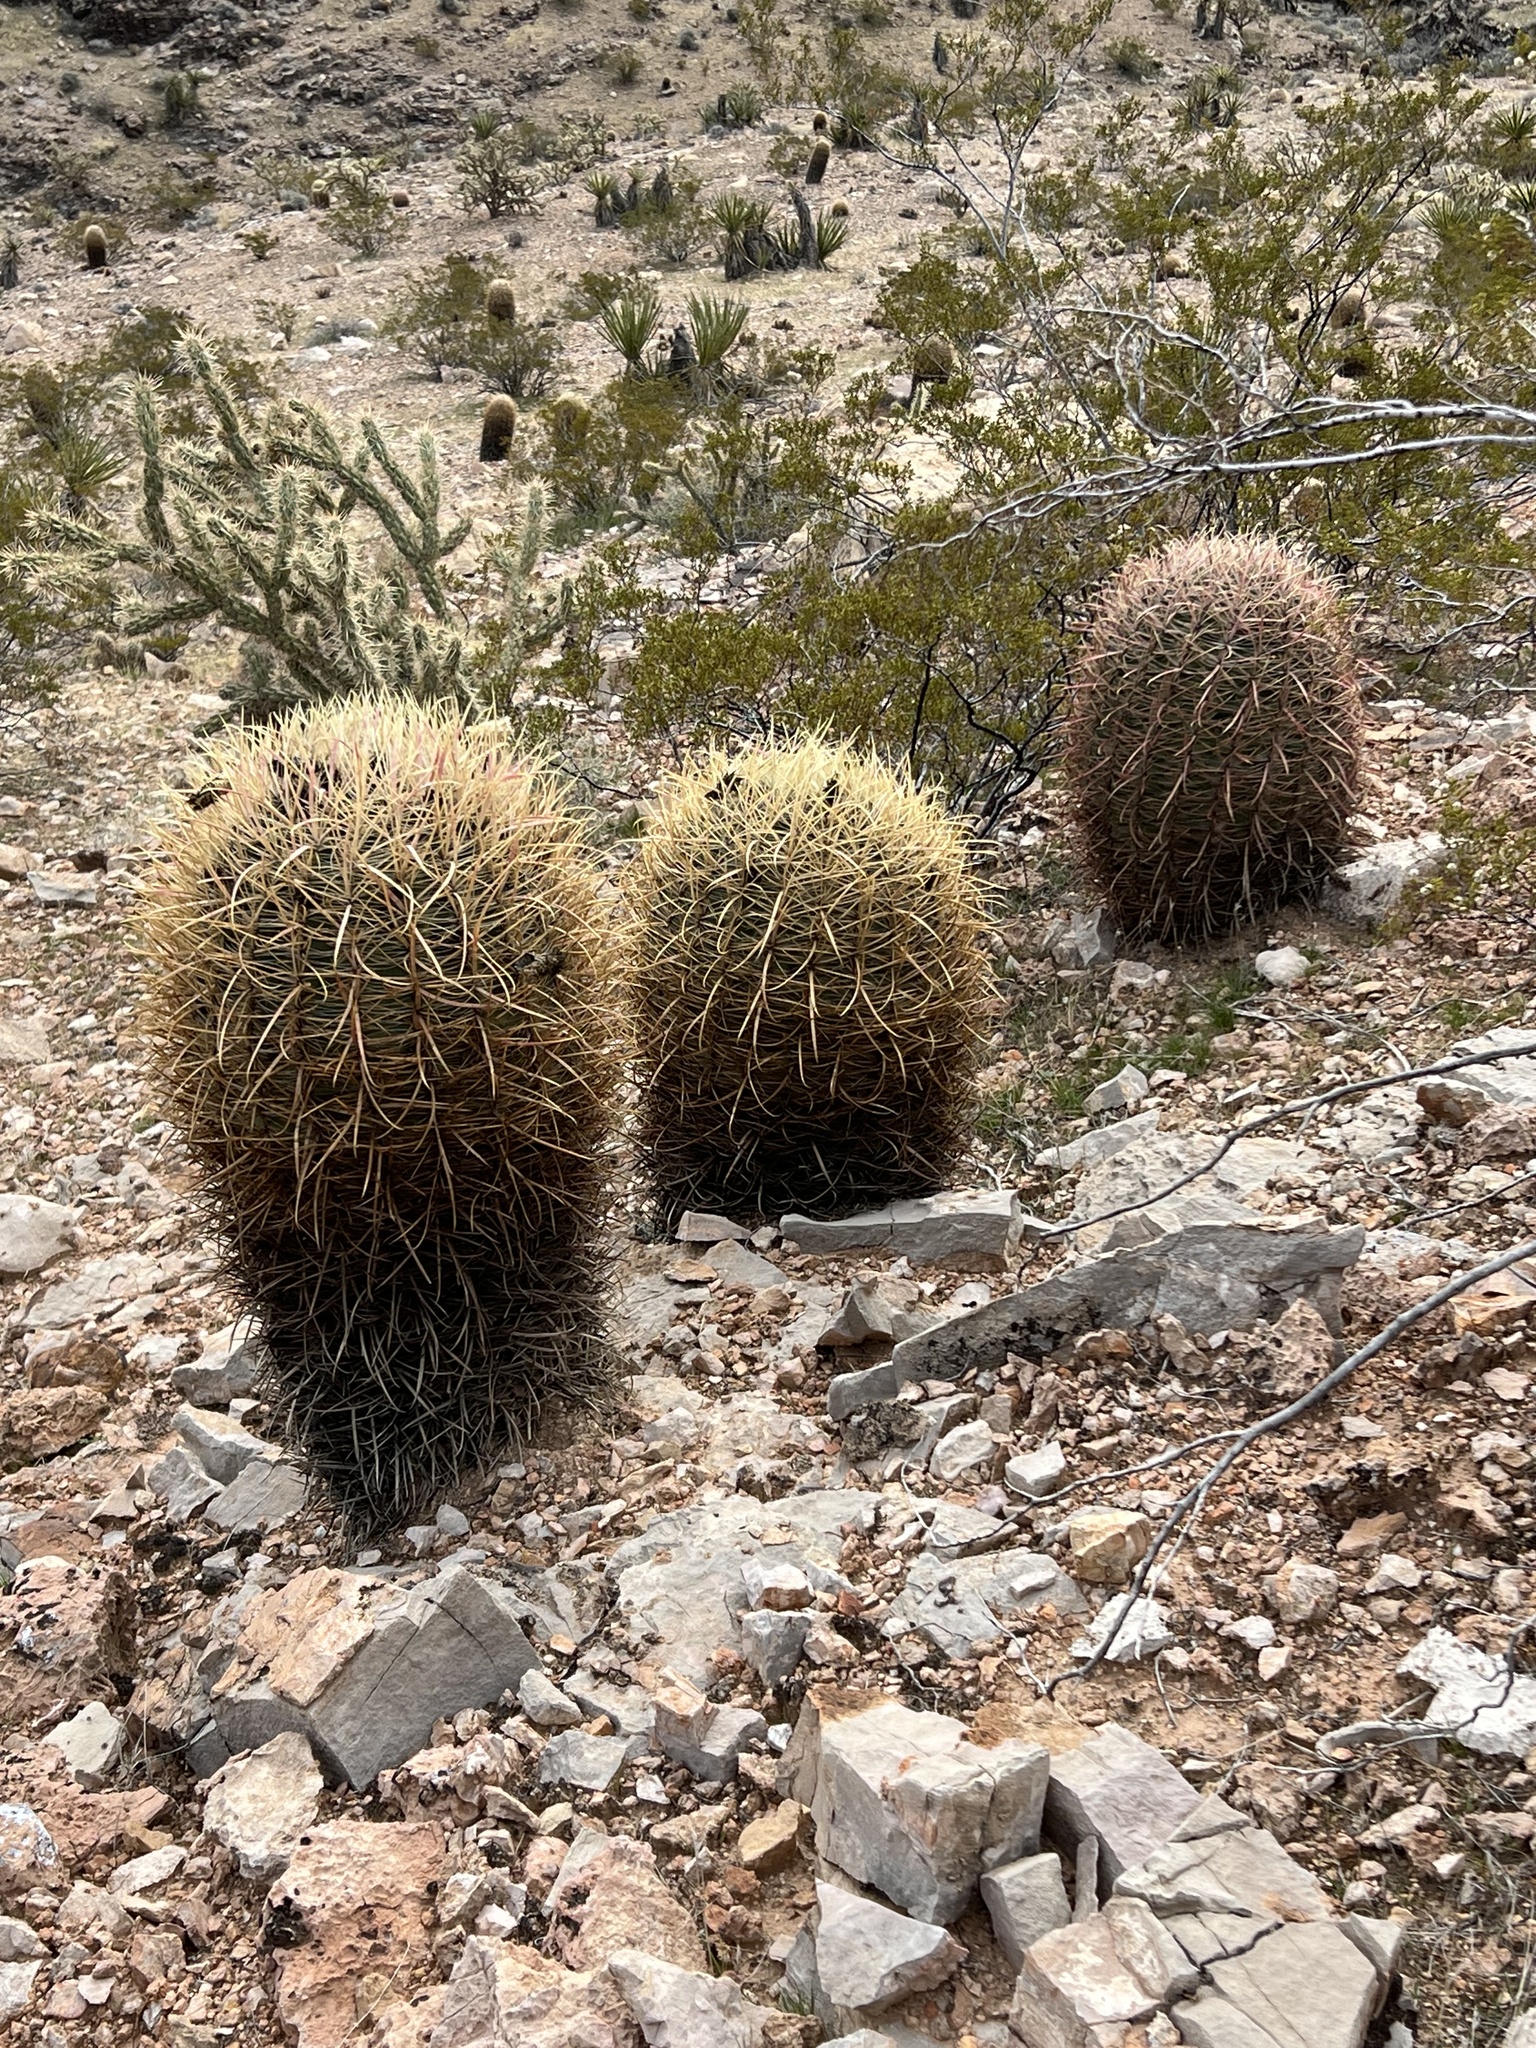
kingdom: Plantae
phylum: Tracheophyta
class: Magnoliopsida
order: Caryophyllales
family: Cactaceae
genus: Ferocactus
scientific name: Ferocactus cylindraceus
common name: California barrel cactus
